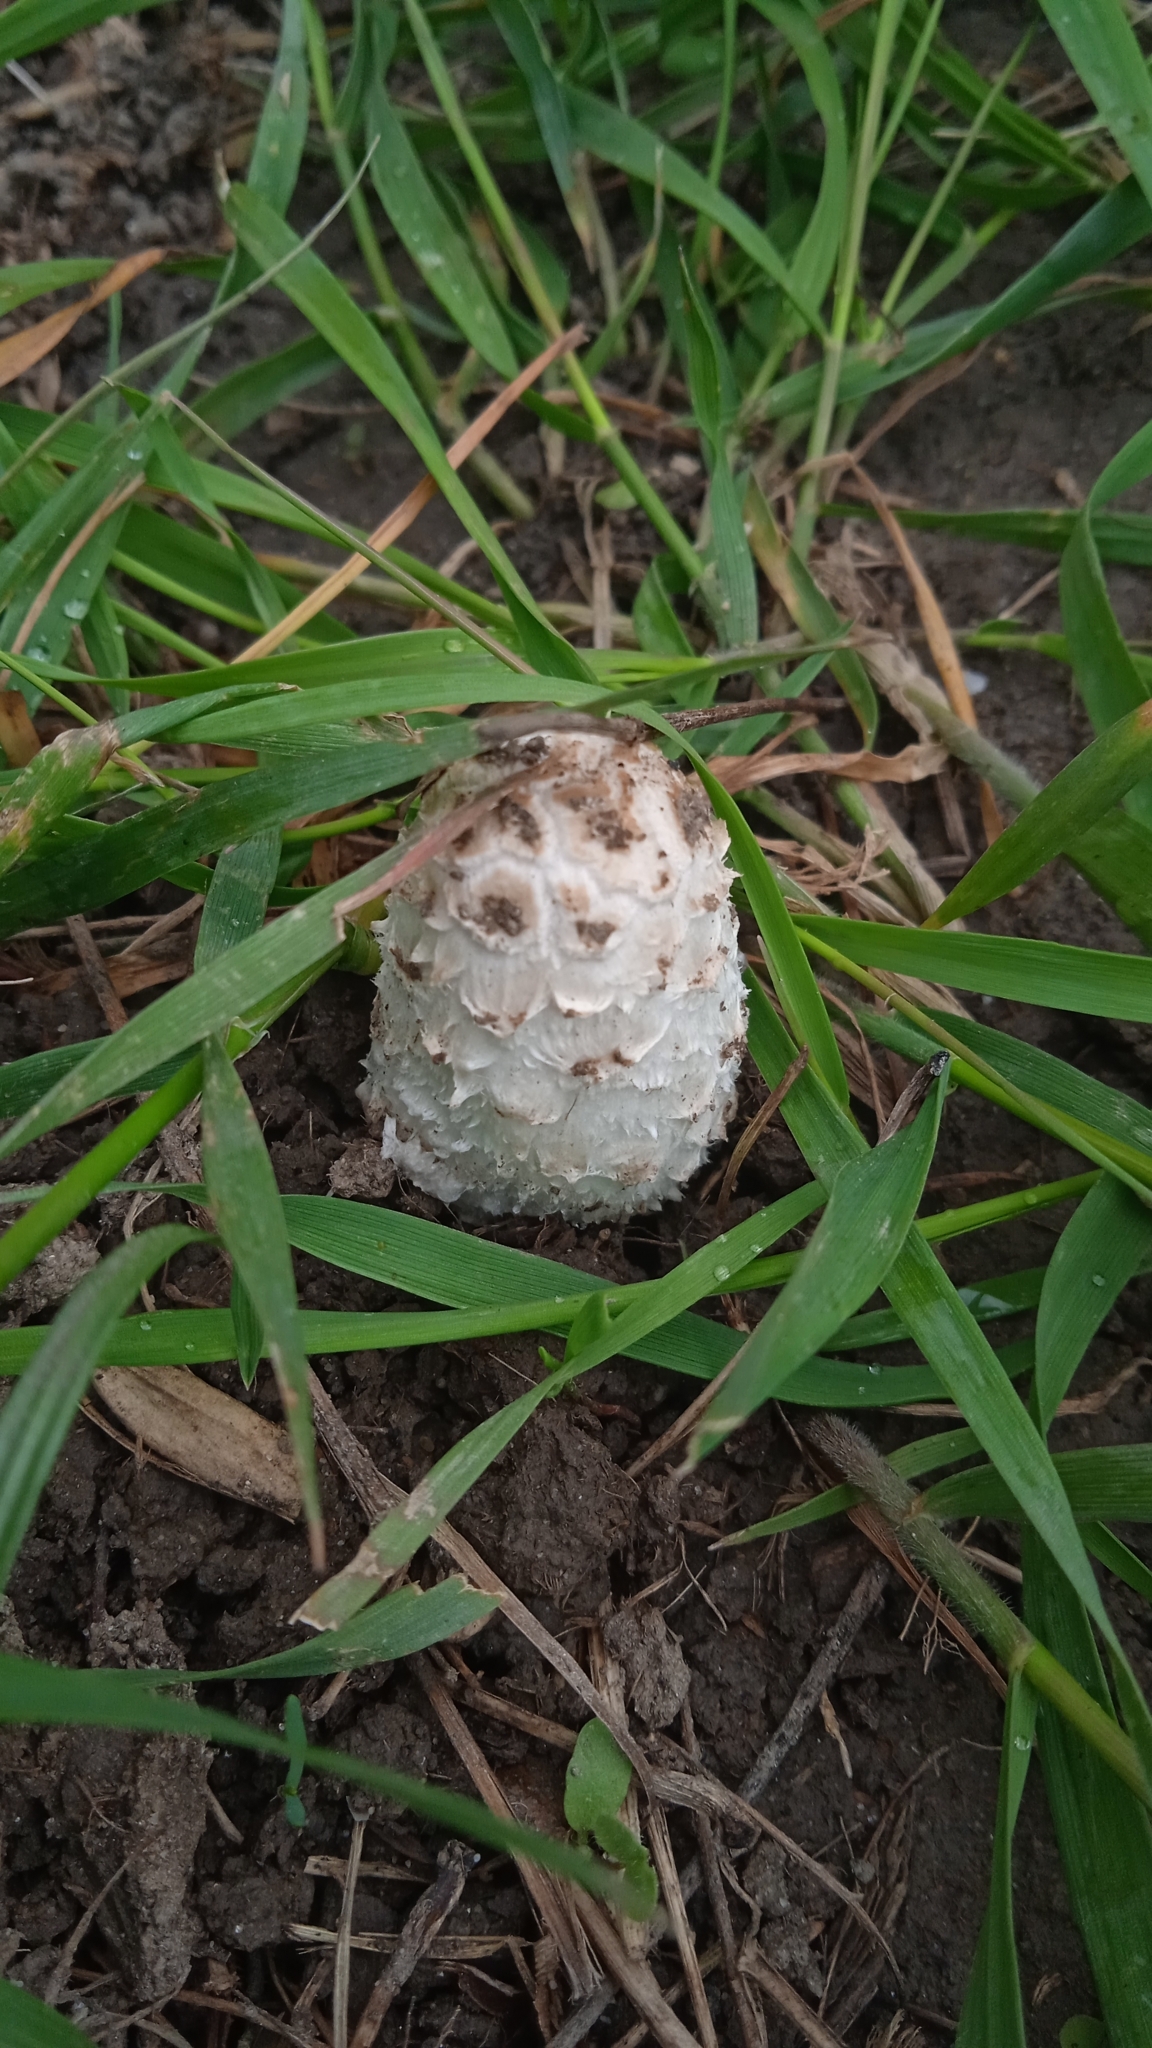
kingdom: Fungi
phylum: Basidiomycota
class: Agaricomycetes
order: Agaricales
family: Agaricaceae
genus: Coprinus
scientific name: Coprinus comatus
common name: Lawyer's wig
